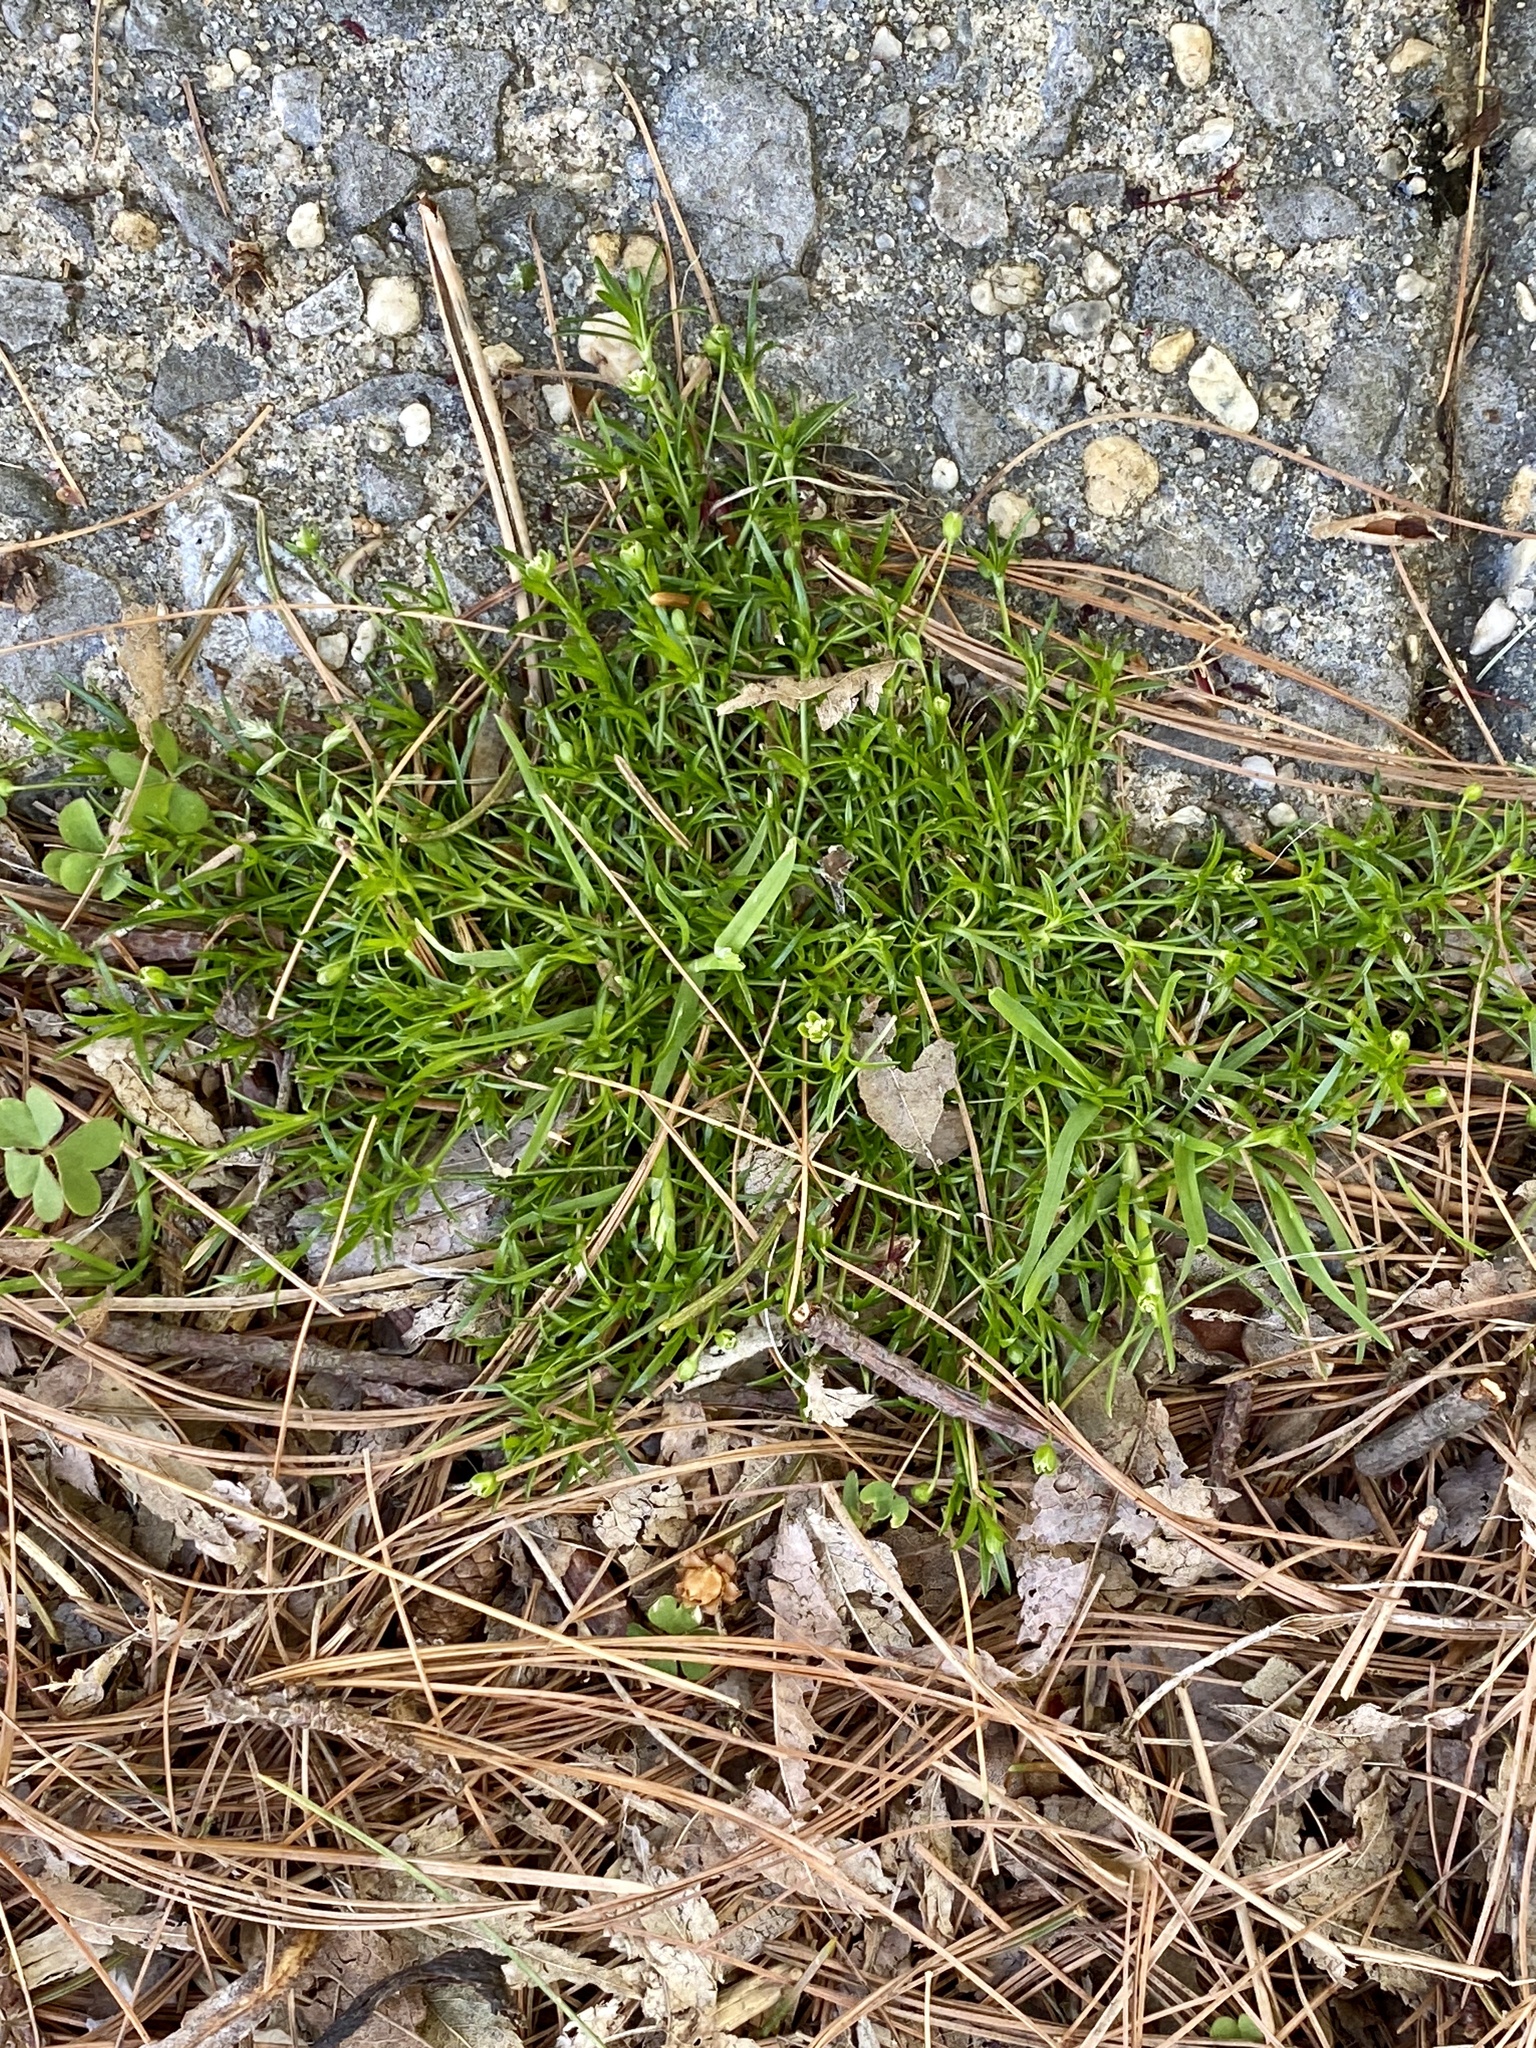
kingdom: Plantae
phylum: Tracheophyta
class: Magnoliopsida
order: Caryophyllales
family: Caryophyllaceae
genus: Sagina
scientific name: Sagina procumbens
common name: Procumbent pearlwort
